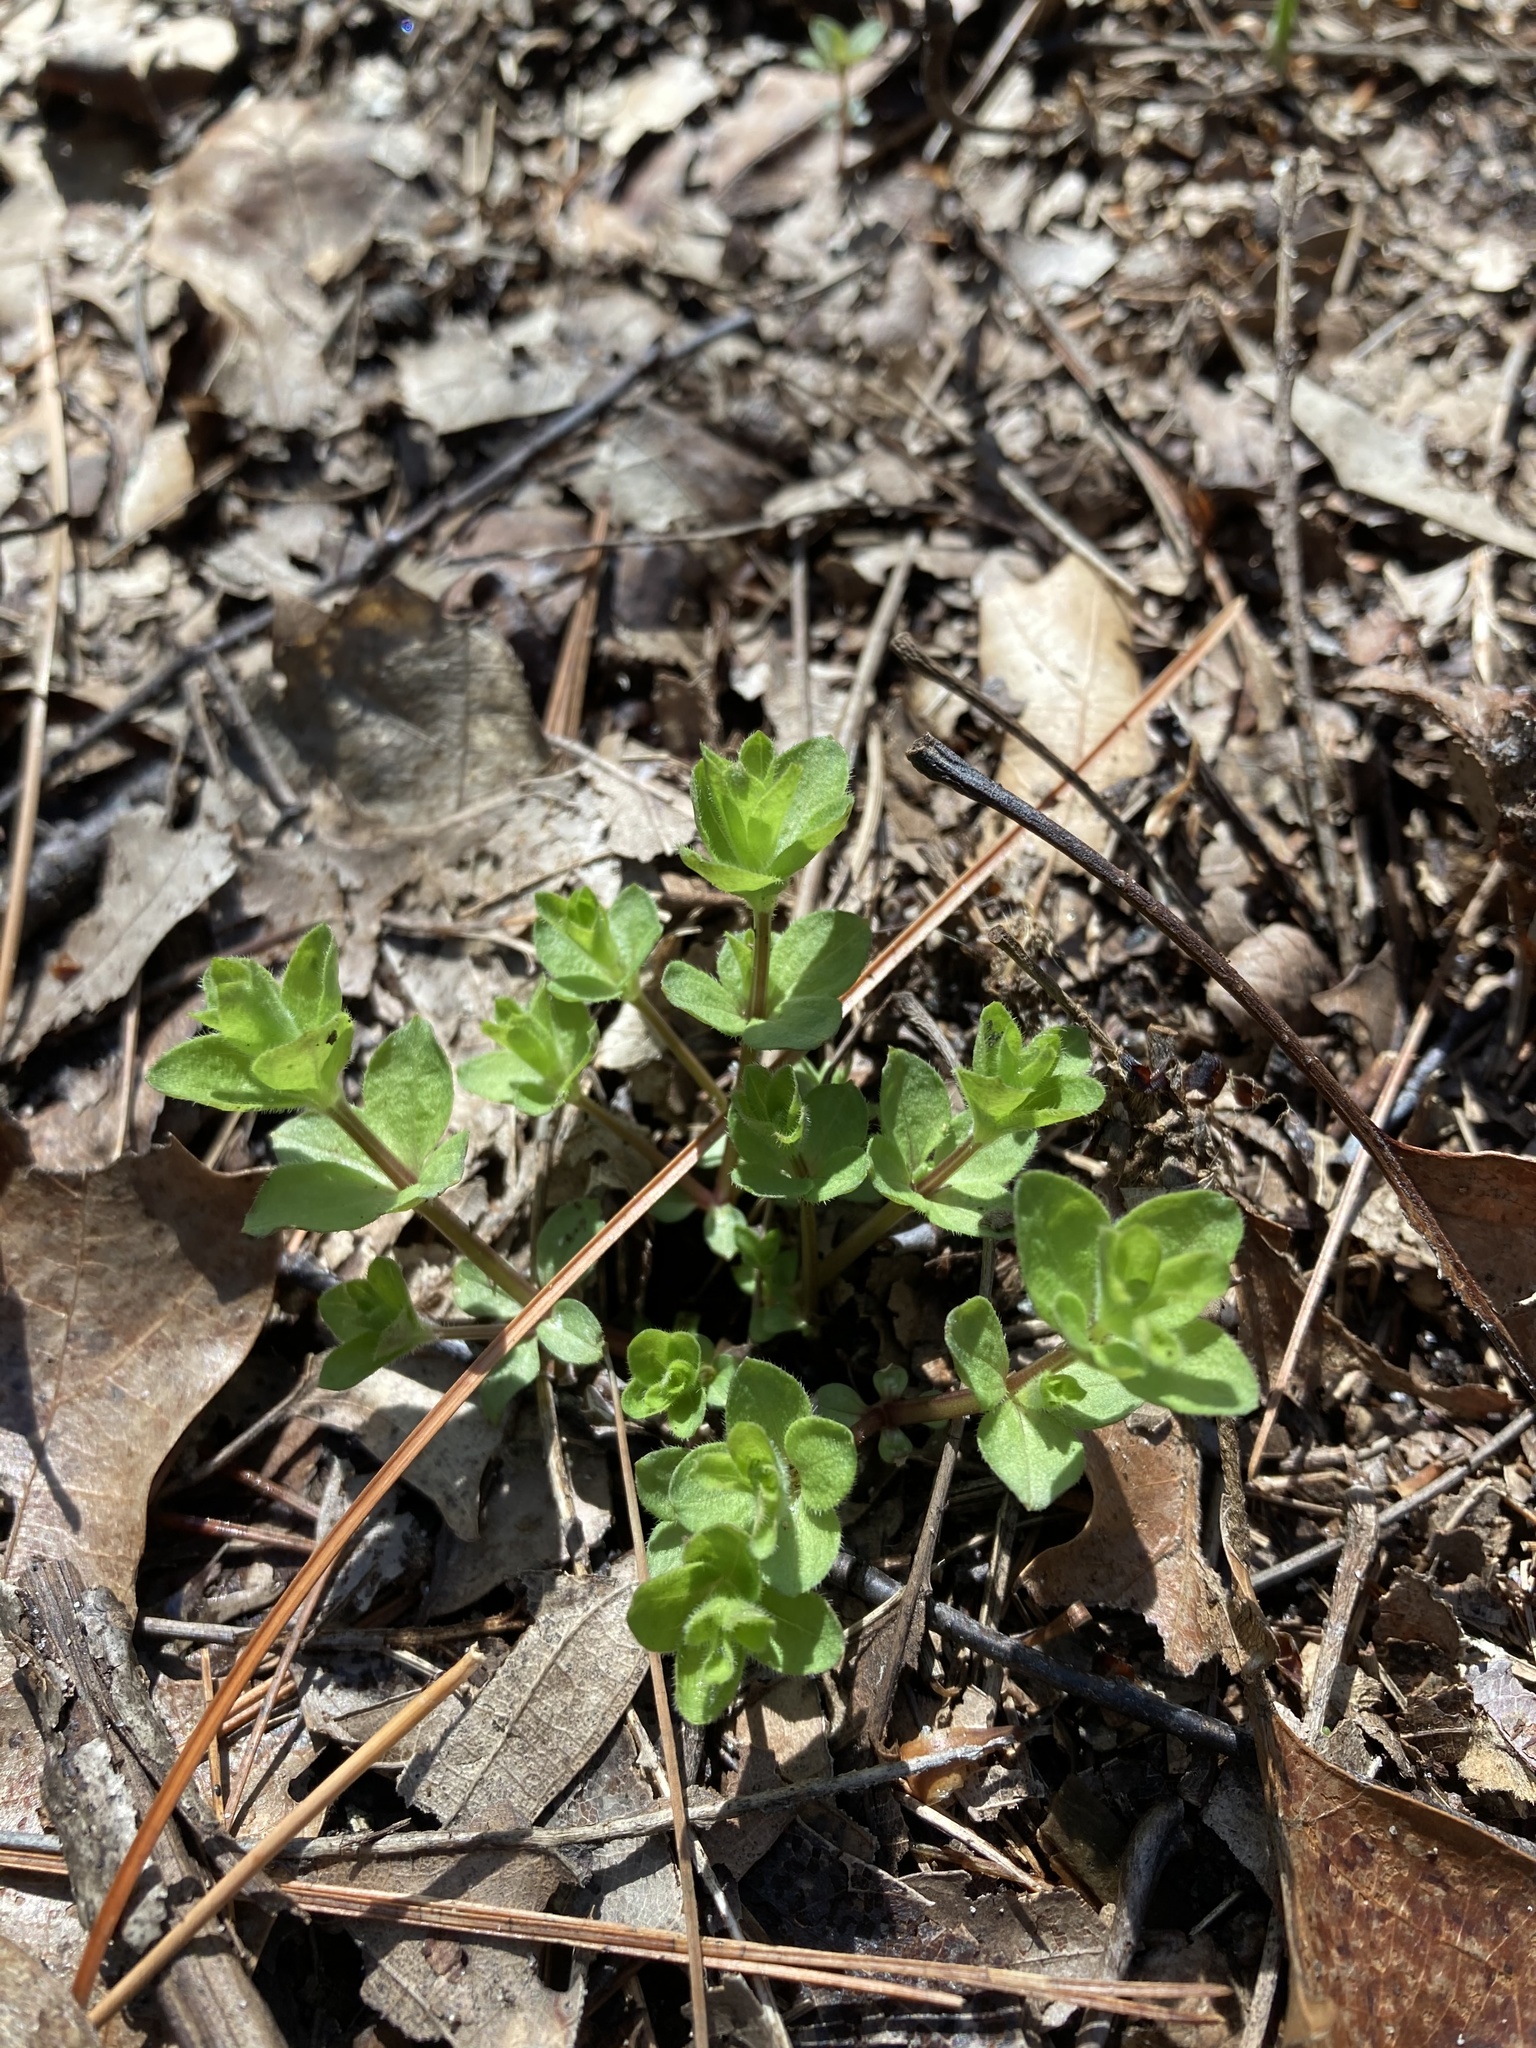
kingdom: Plantae
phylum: Tracheophyta
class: Magnoliopsida
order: Gentianales
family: Rubiaceae
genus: Galium
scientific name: Galium pilosum
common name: Hairy bedstraw
